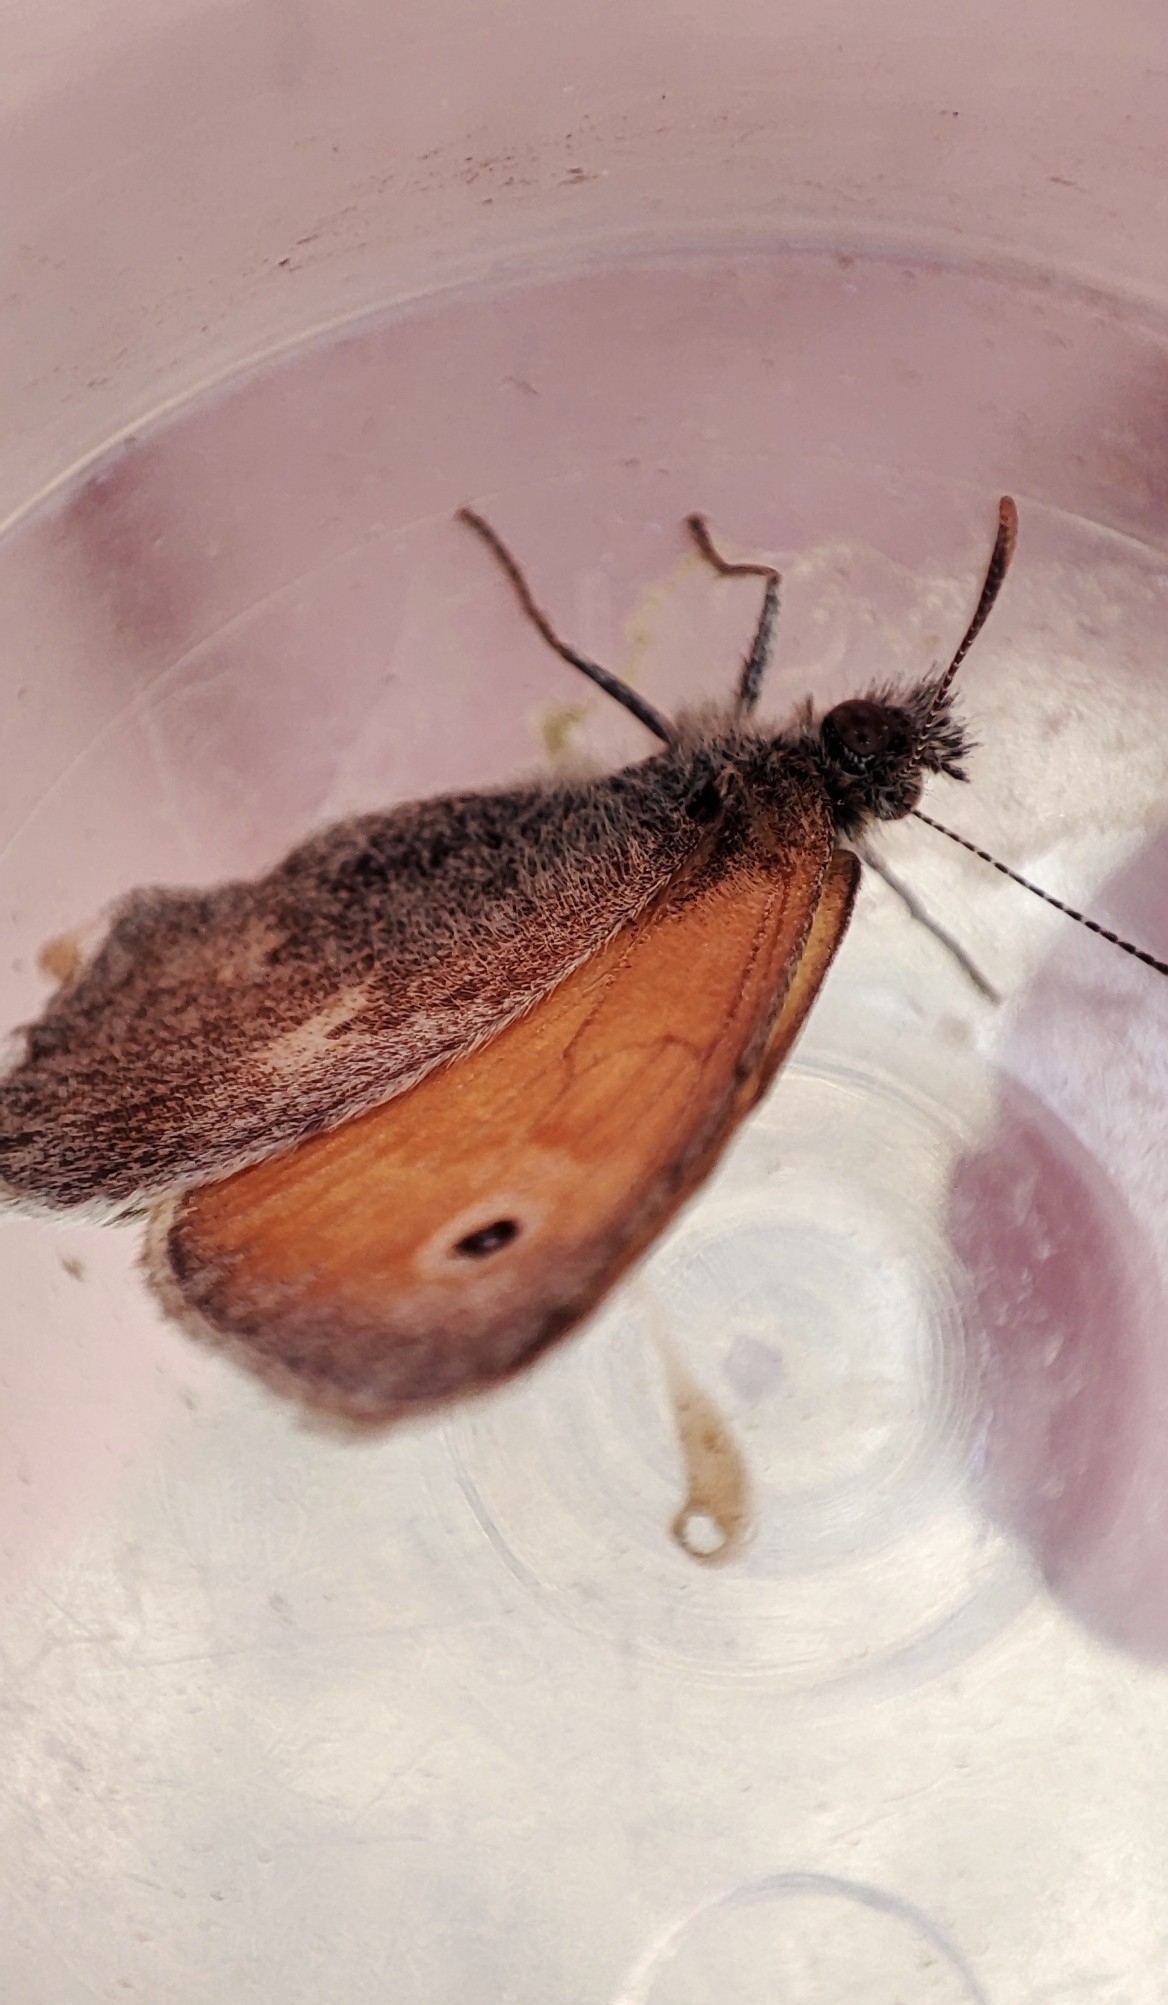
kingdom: Animalia
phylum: Arthropoda
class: Insecta
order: Lepidoptera
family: Nymphalidae
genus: Coenonympha
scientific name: Coenonympha pamphilus
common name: Small heath
